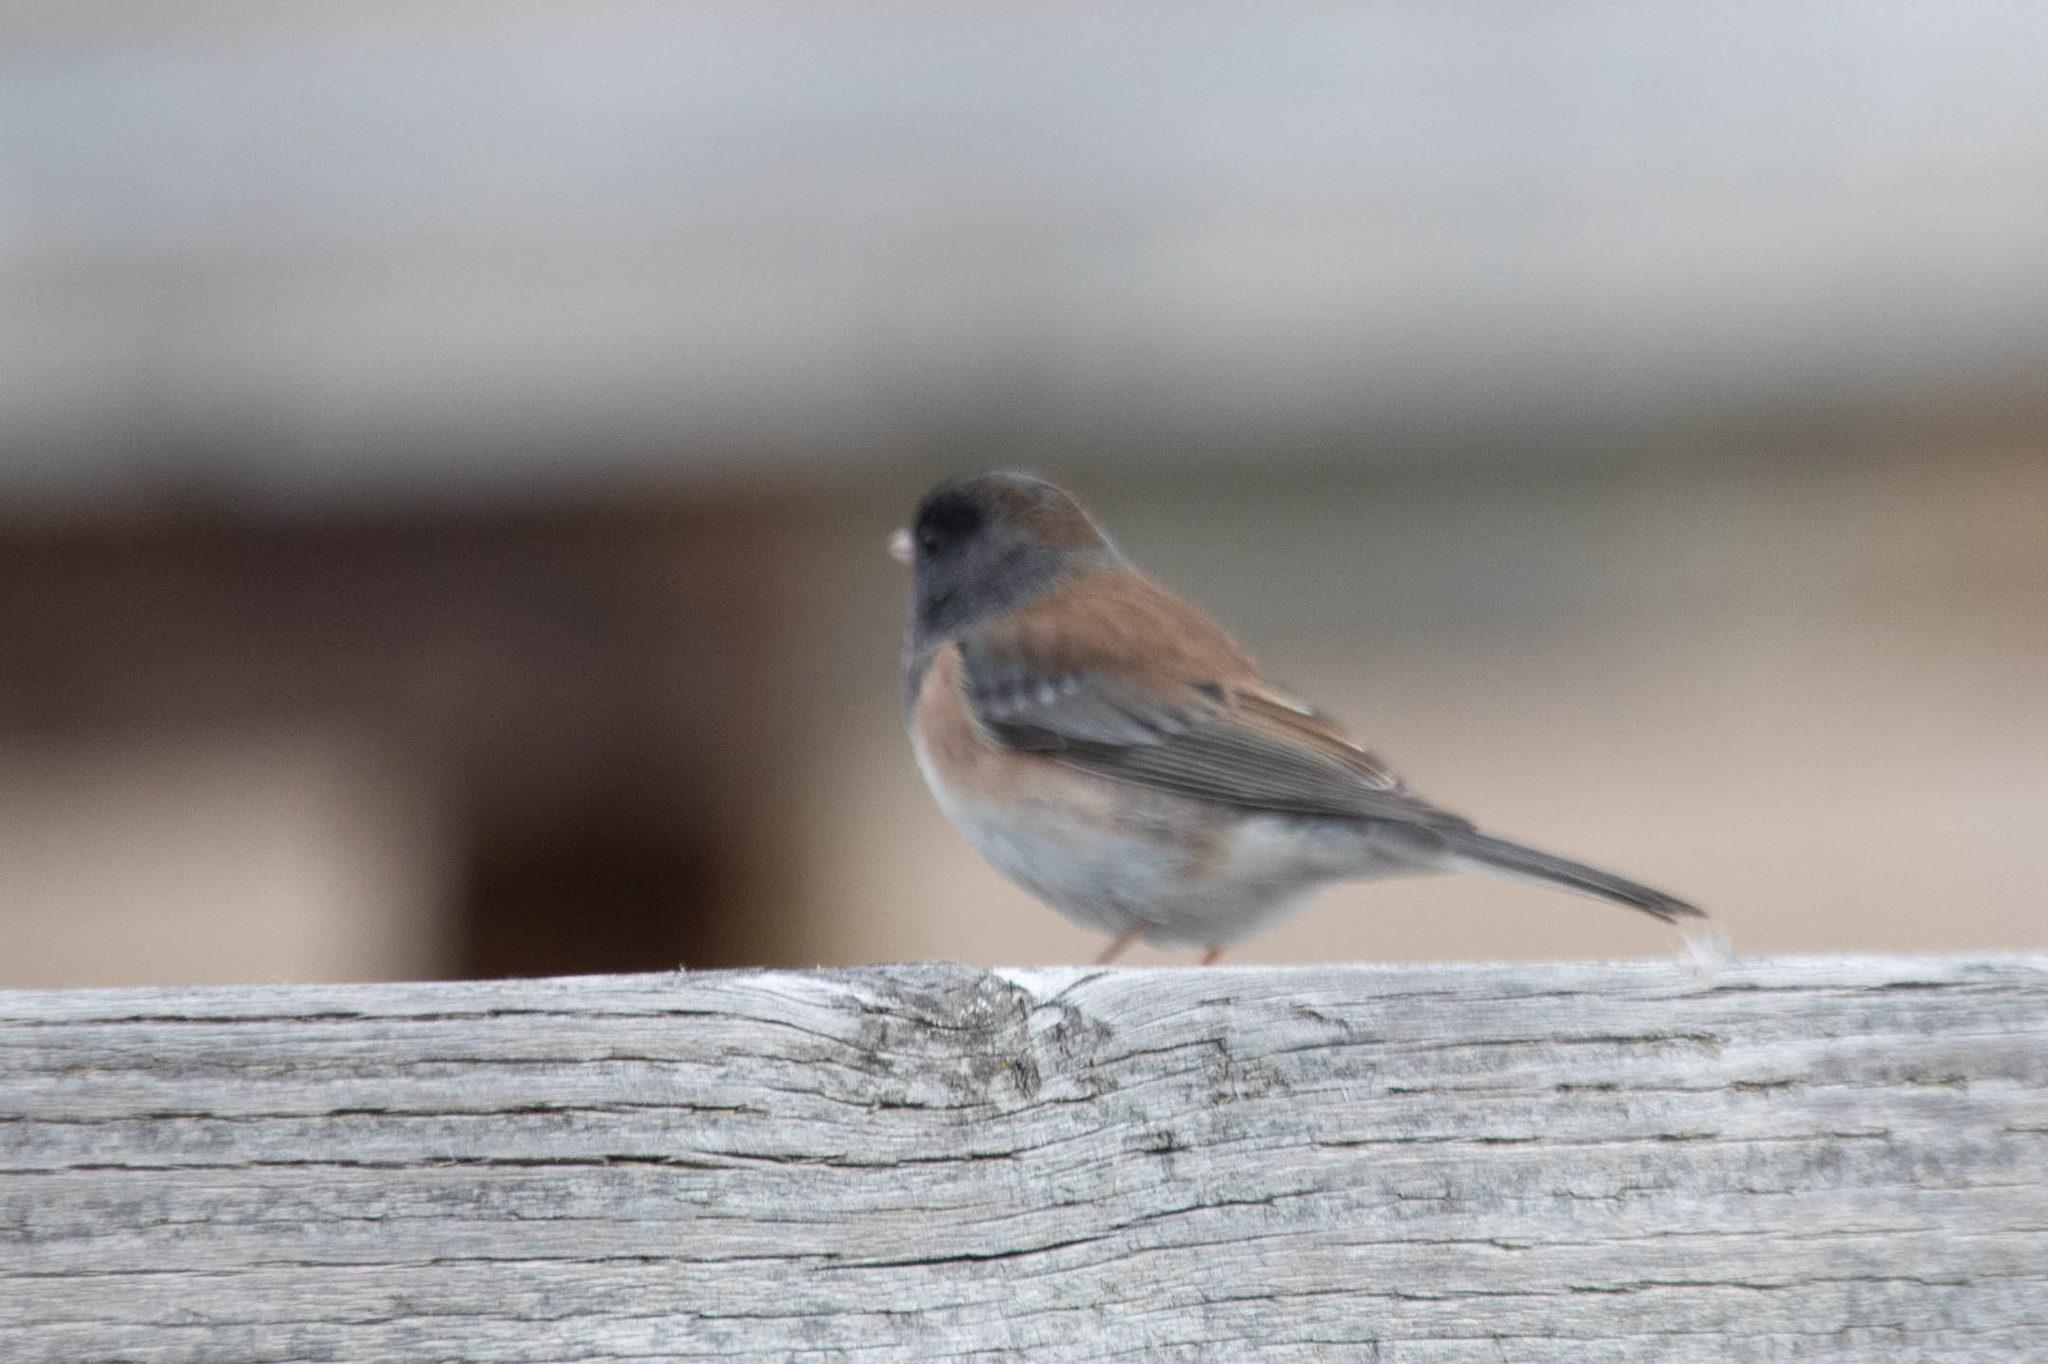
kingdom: Animalia
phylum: Chordata
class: Aves
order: Passeriformes
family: Passerellidae
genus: Junco
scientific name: Junco hyemalis
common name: Dark-eyed junco
